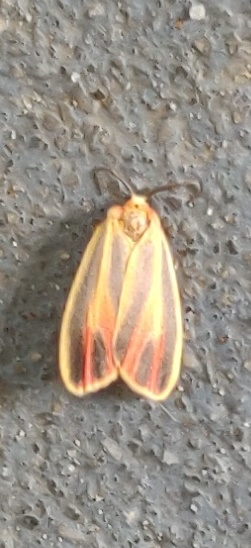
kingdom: Animalia
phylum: Arthropoda
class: Insecta
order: Lepidoptera
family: Erebidae
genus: Hypoprepia
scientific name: Hypoprepia fucosa
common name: Painted lichen moth
